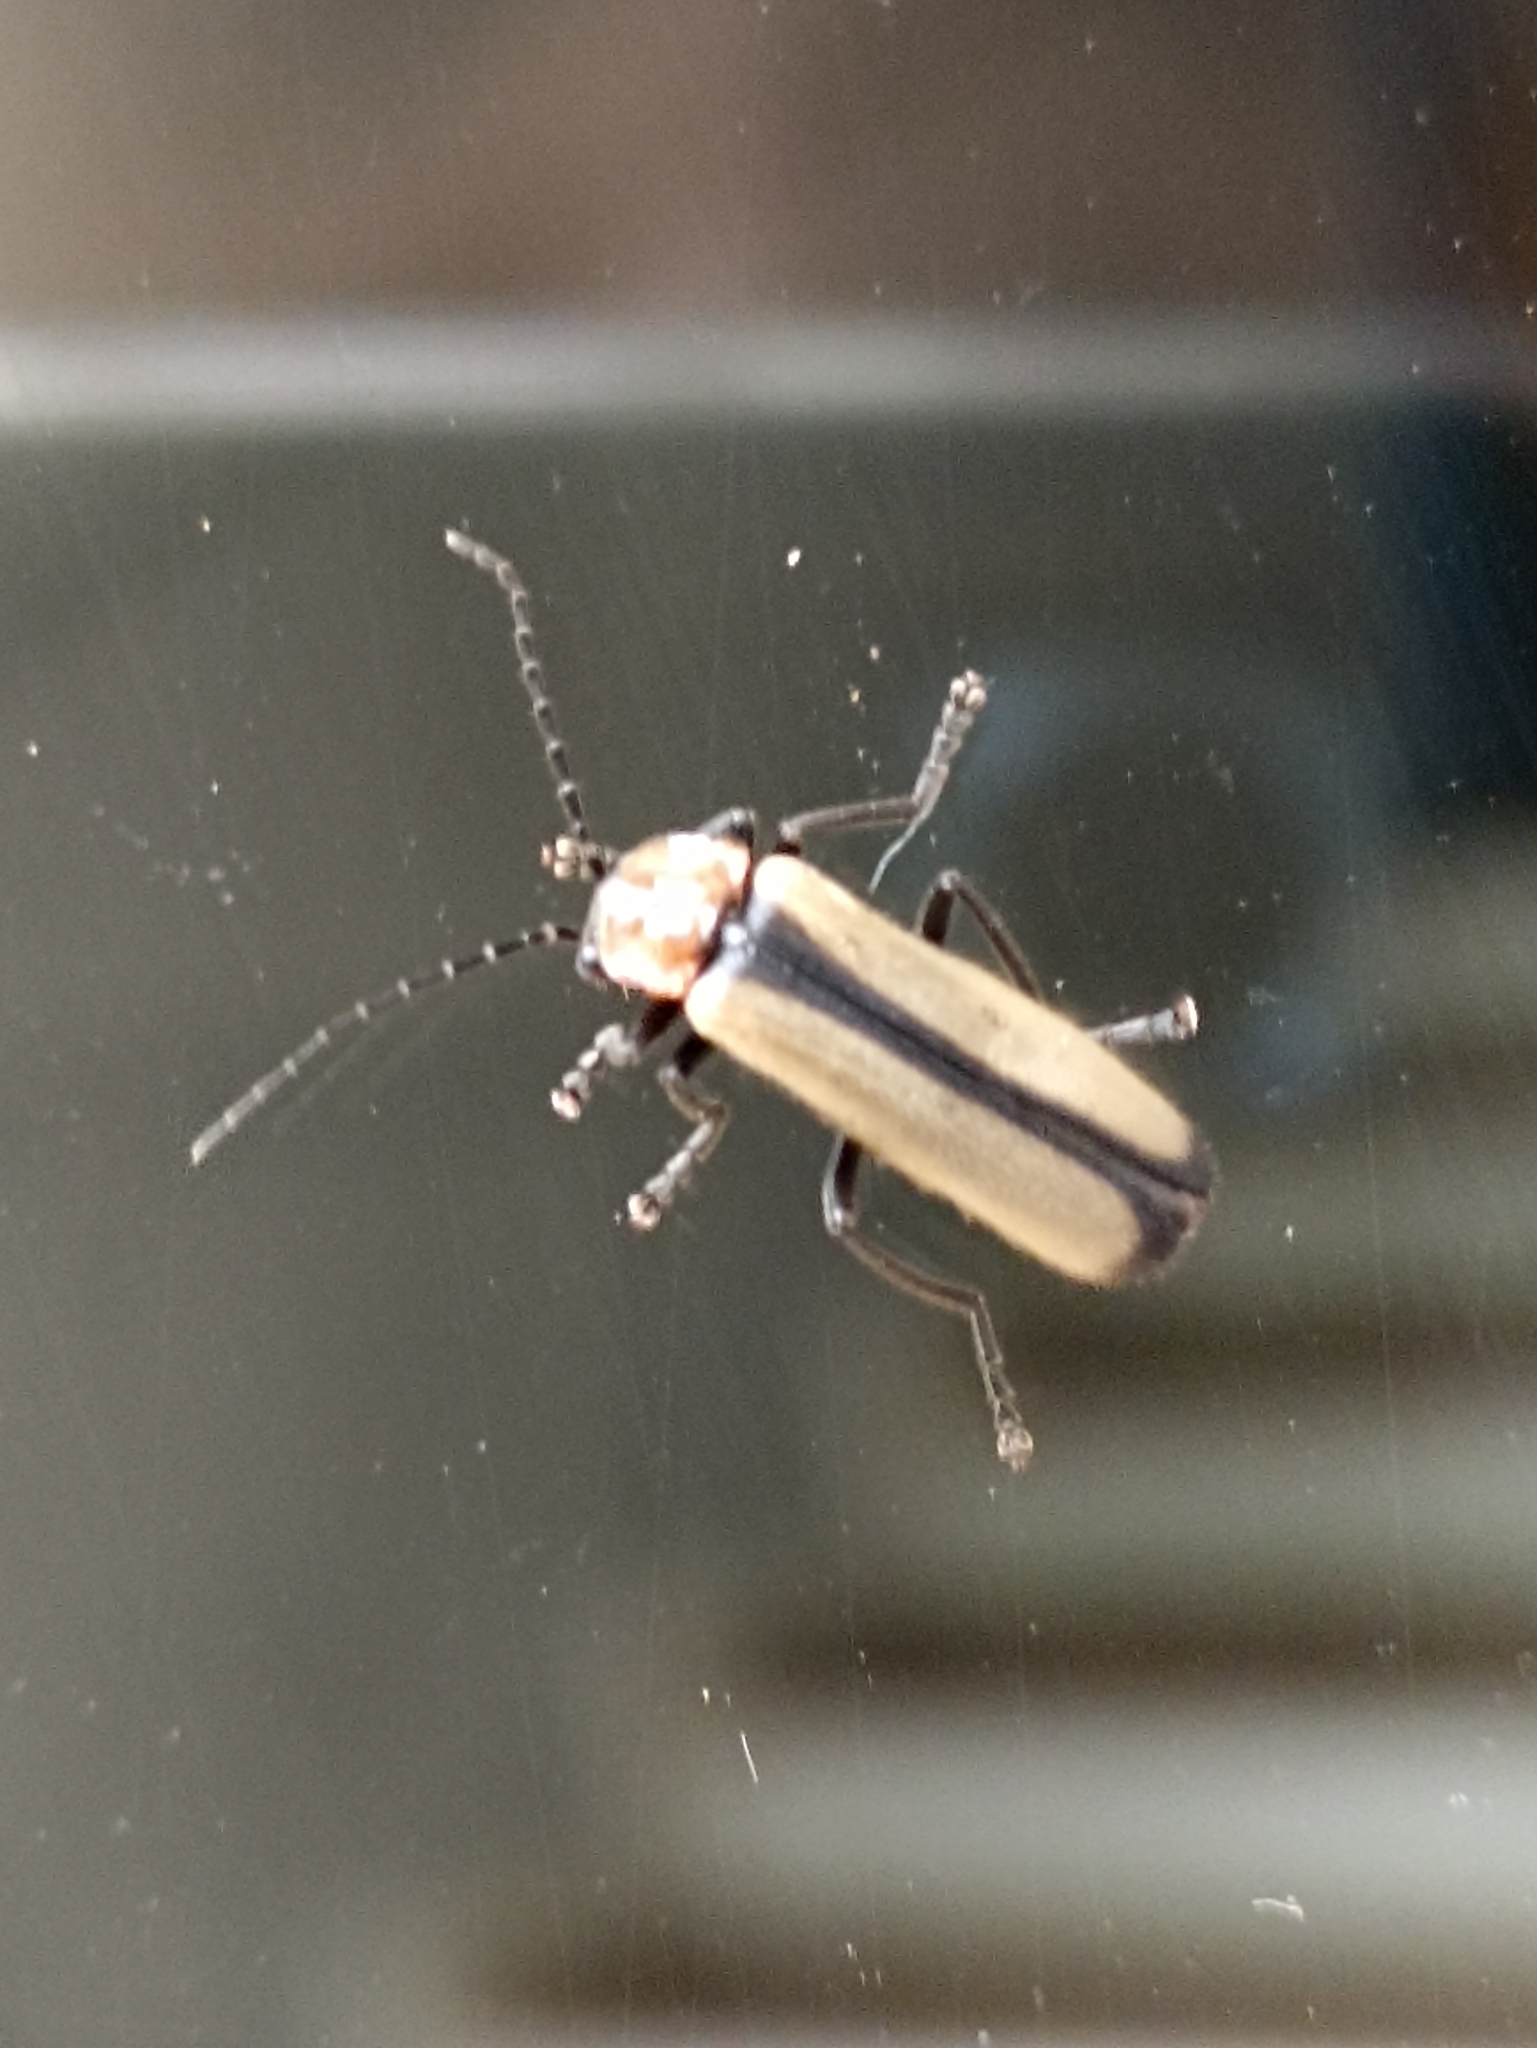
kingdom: Animalia
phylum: Arthropoda
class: Insecta
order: Coleoptera
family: Cantharidae
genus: Discodon
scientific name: Discodon
